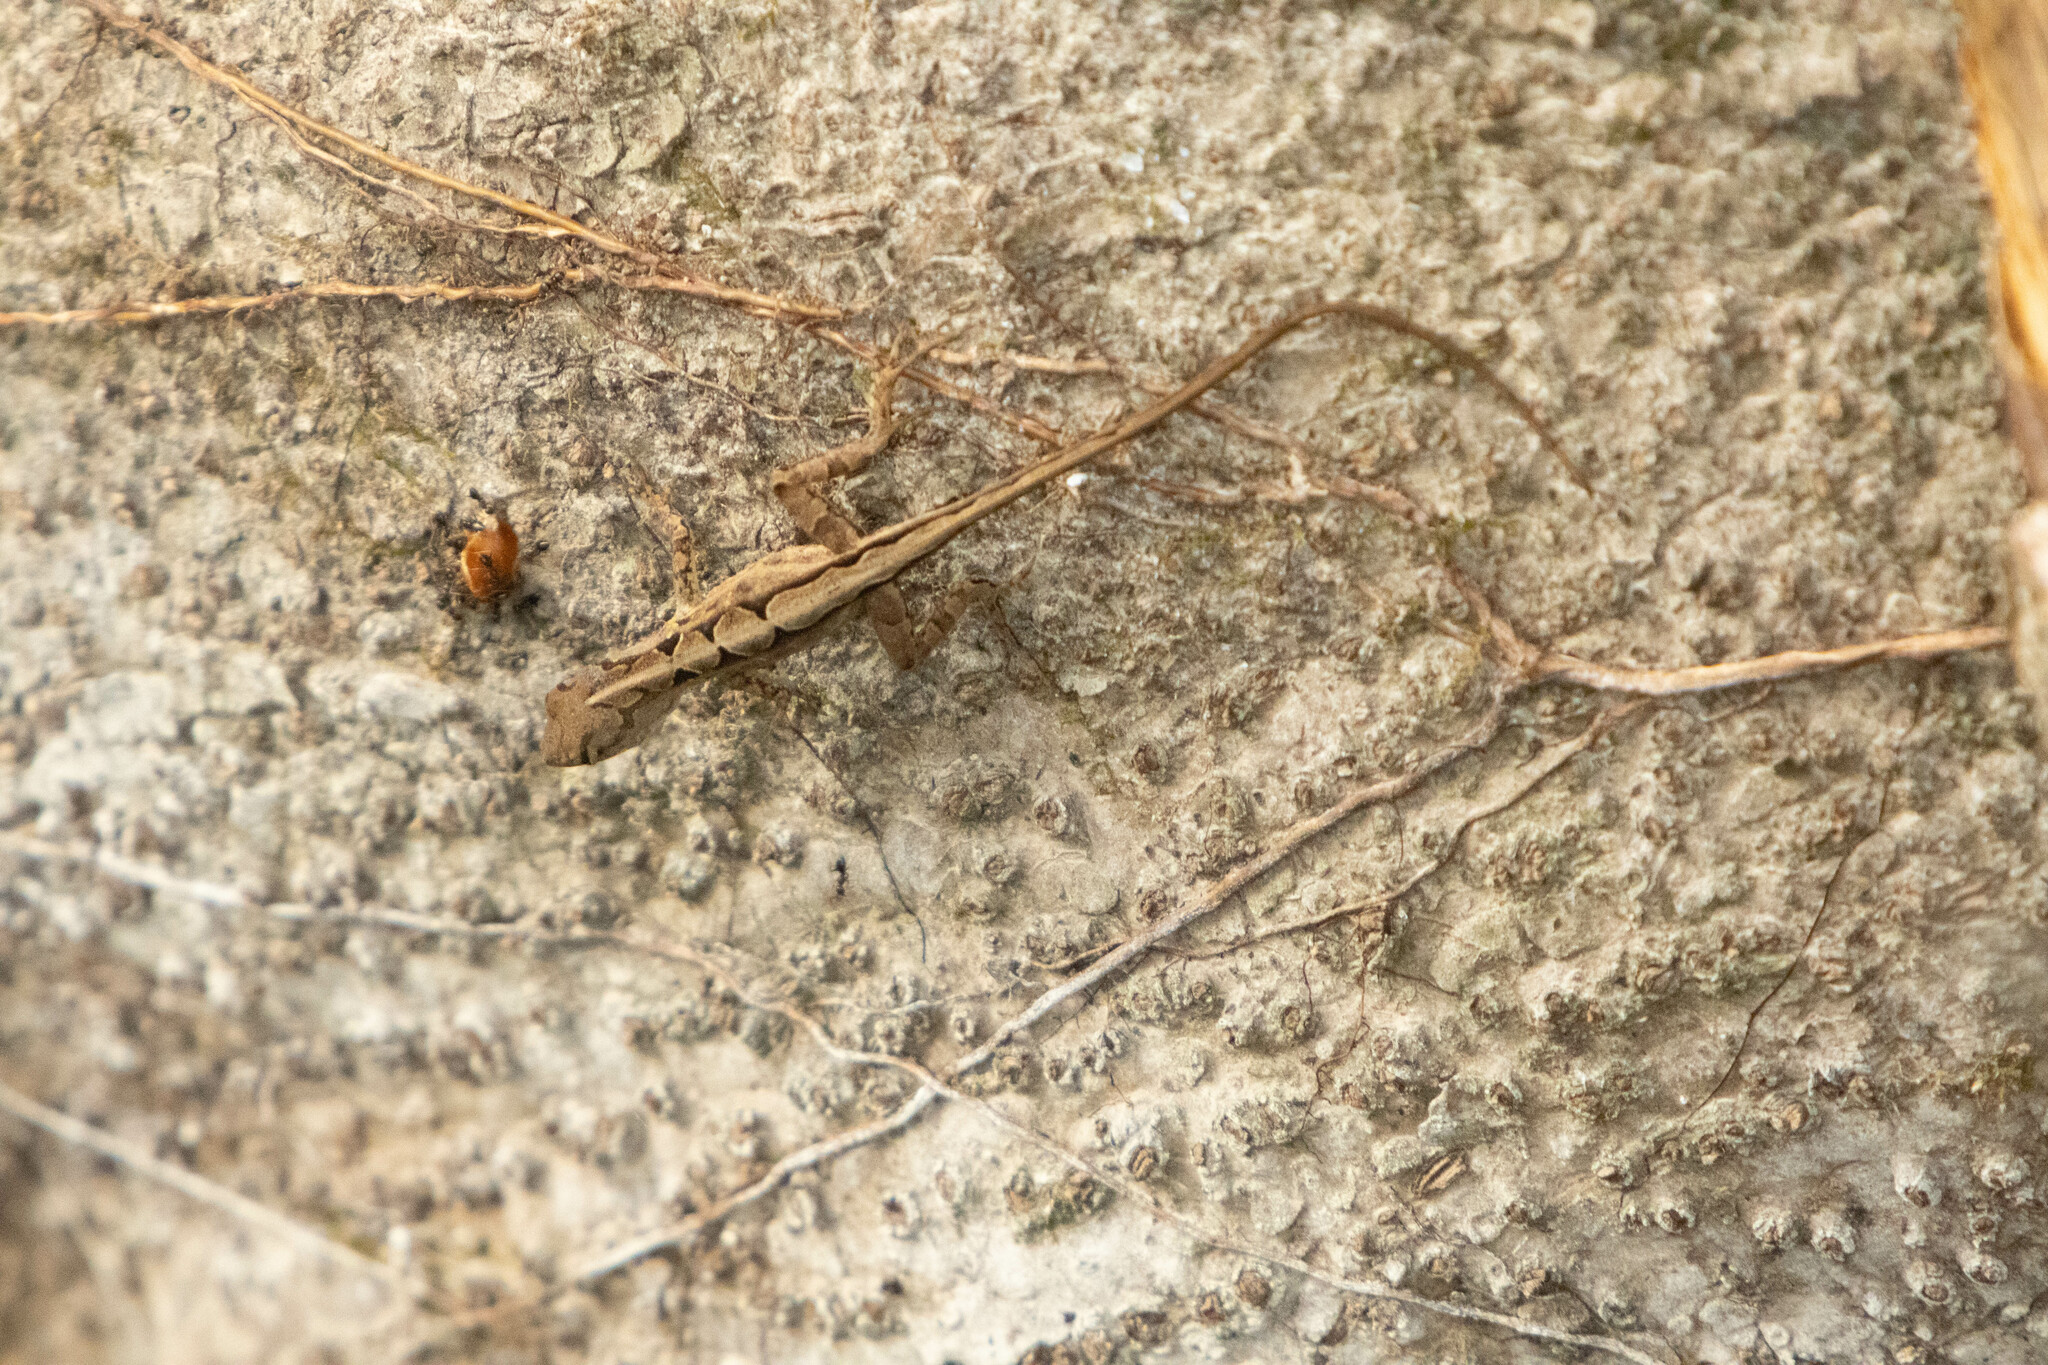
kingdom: Animalia
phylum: Chordata
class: Squamata
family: Dactyloidae
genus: Anolis
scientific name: Anolis sagrei
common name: Brown anole
